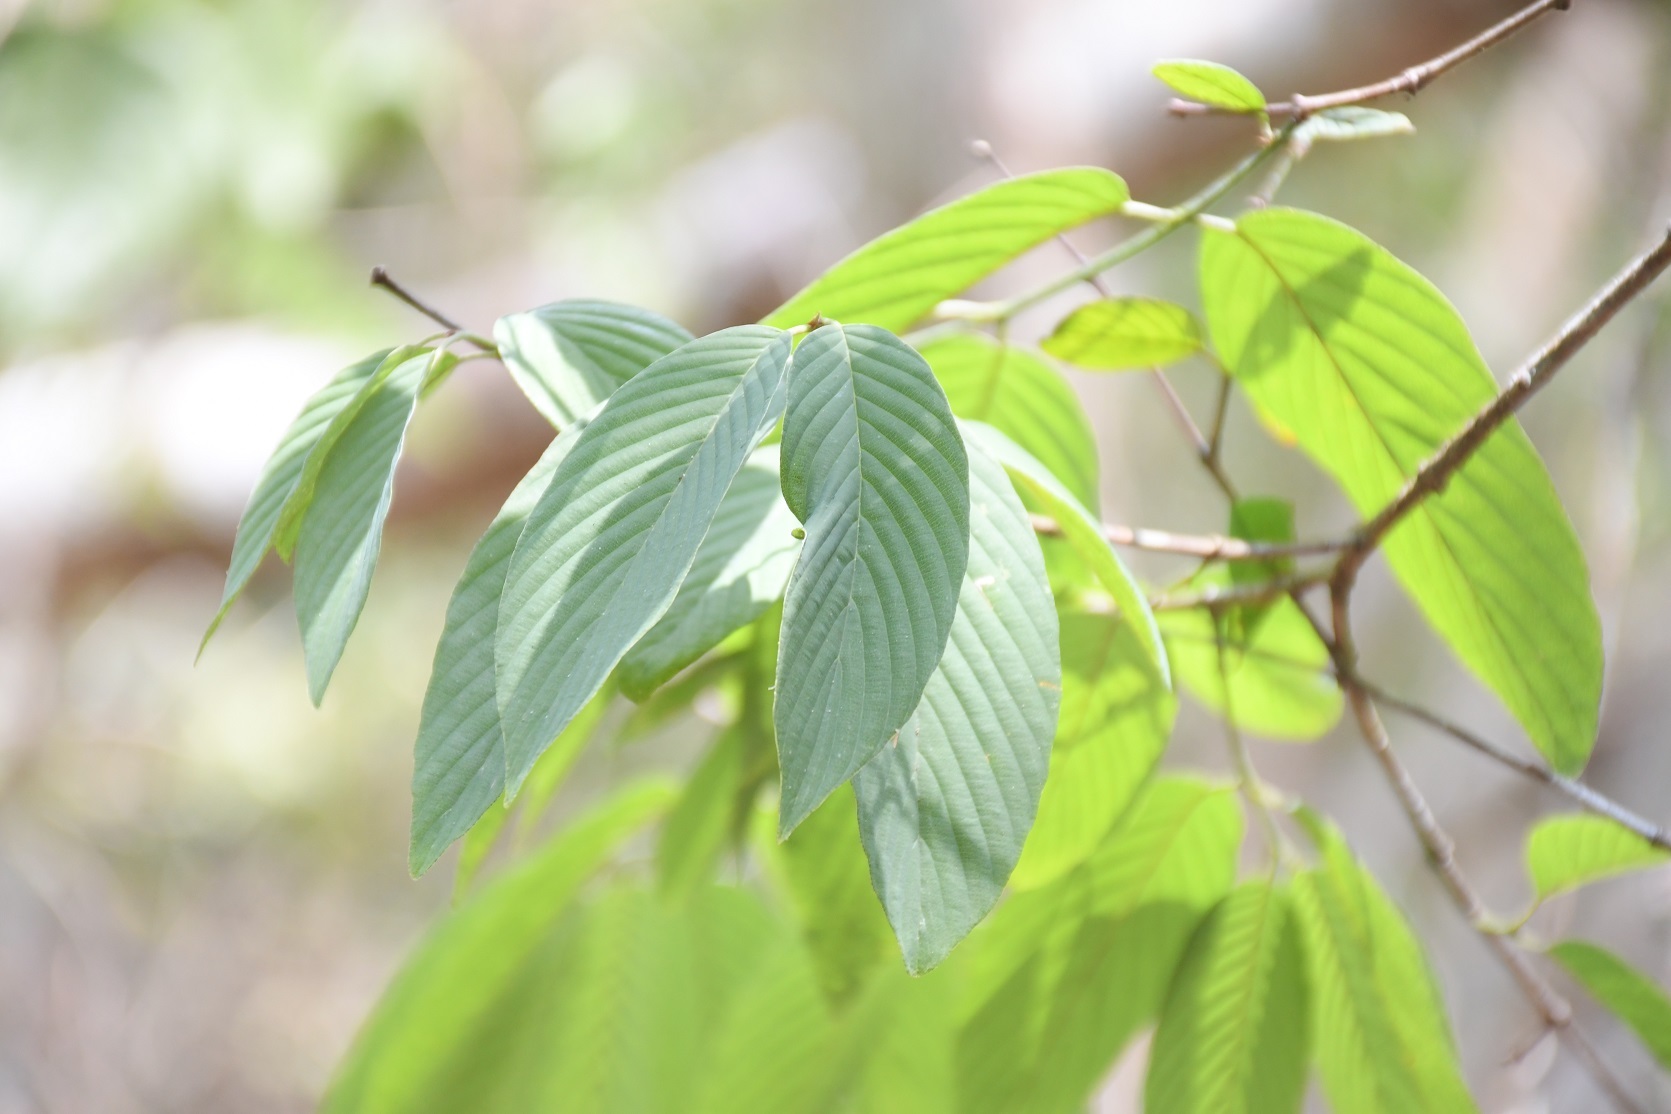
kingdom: Plantae
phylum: Tracheophyta
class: Magnoliopsida
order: Rosales
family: Rhamnaceae
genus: Karwinskia
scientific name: Karwinskia calderonii
